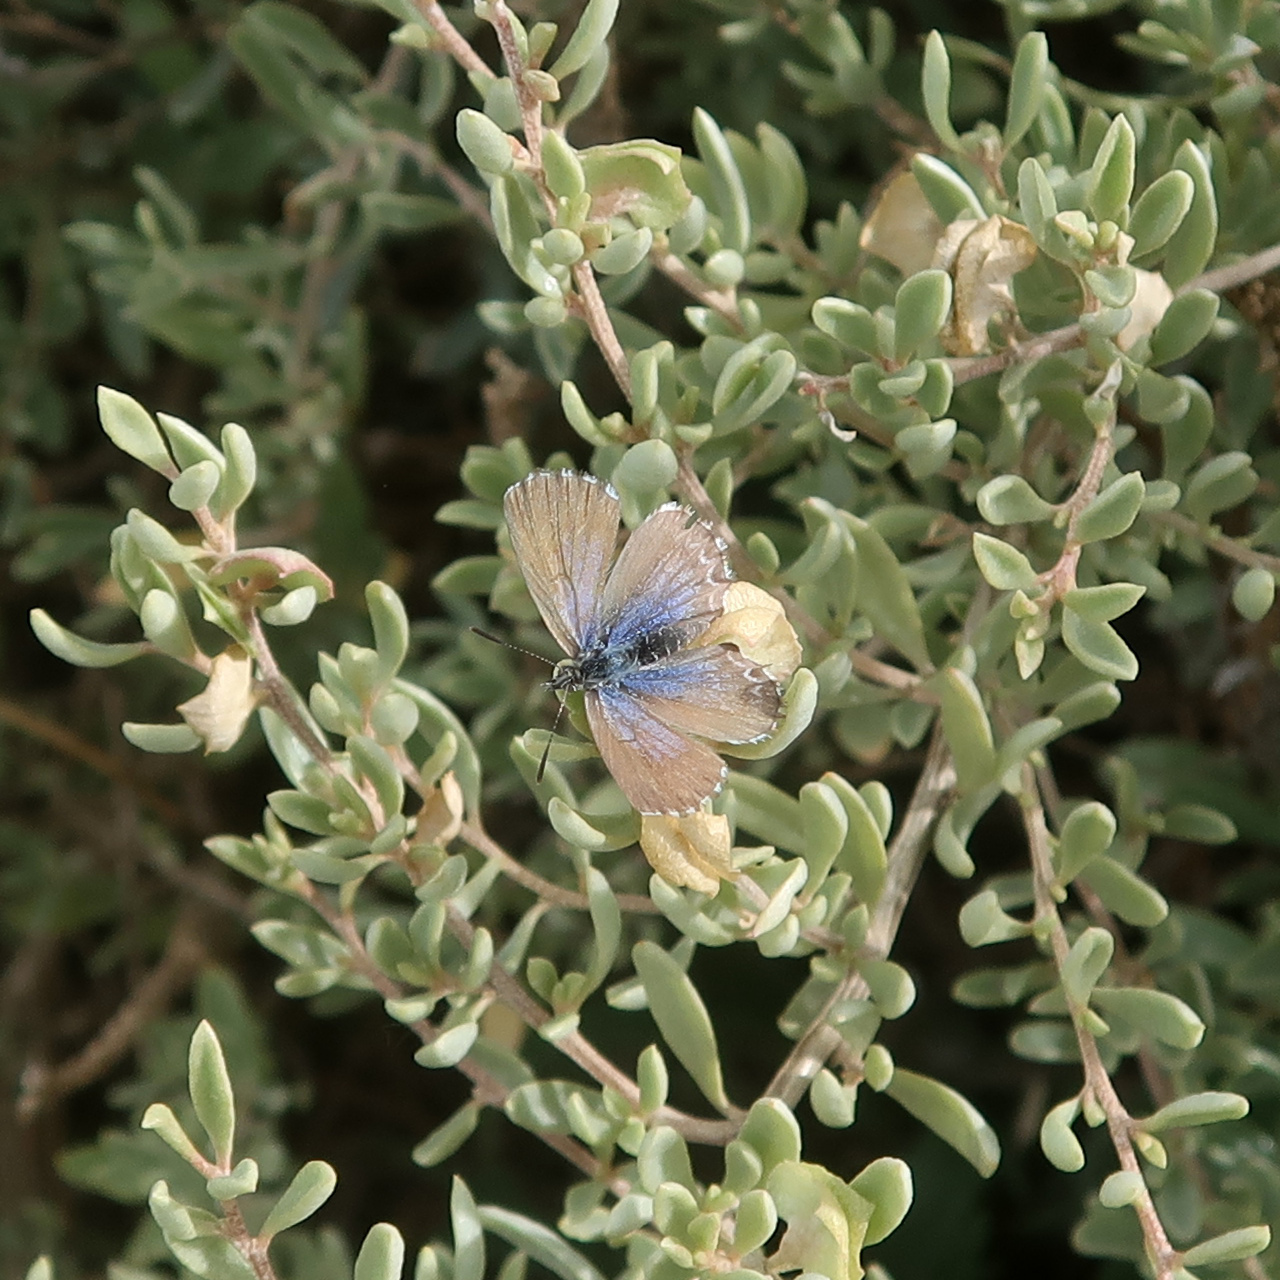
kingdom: Animalia
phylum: Arthropoda
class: Insecta
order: Lepidoptera
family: Lycaenidae
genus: Theclinesthes
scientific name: Theclinesthes serpentata
